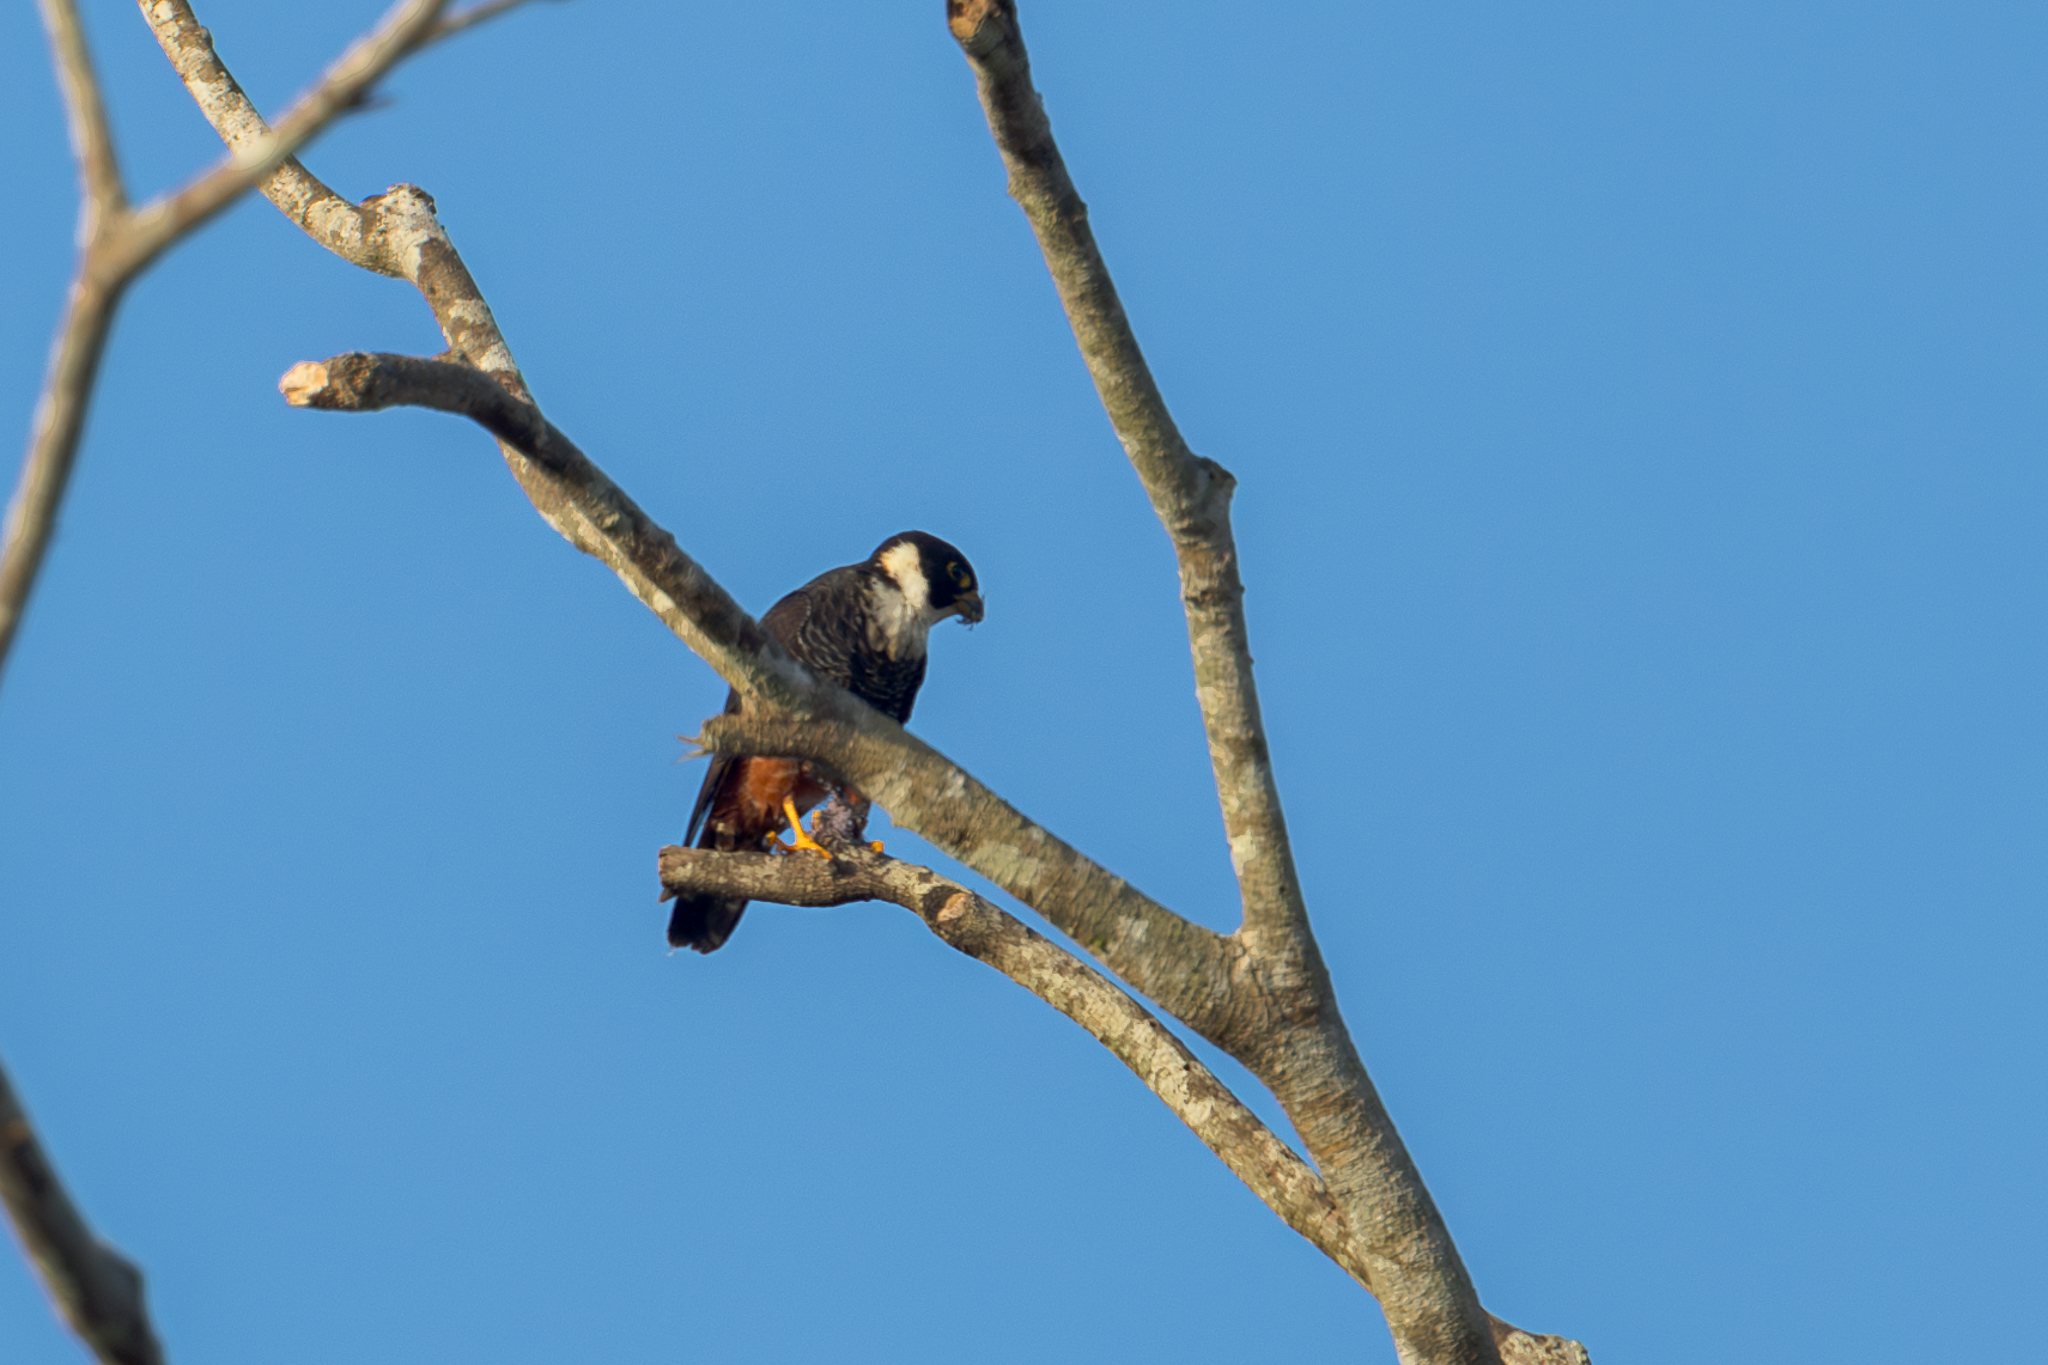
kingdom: Animalia
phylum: Chordata
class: Aves
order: Falconiformes
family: Falconidae
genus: Falco
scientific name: Falco rufigularis
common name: Bat falcon
